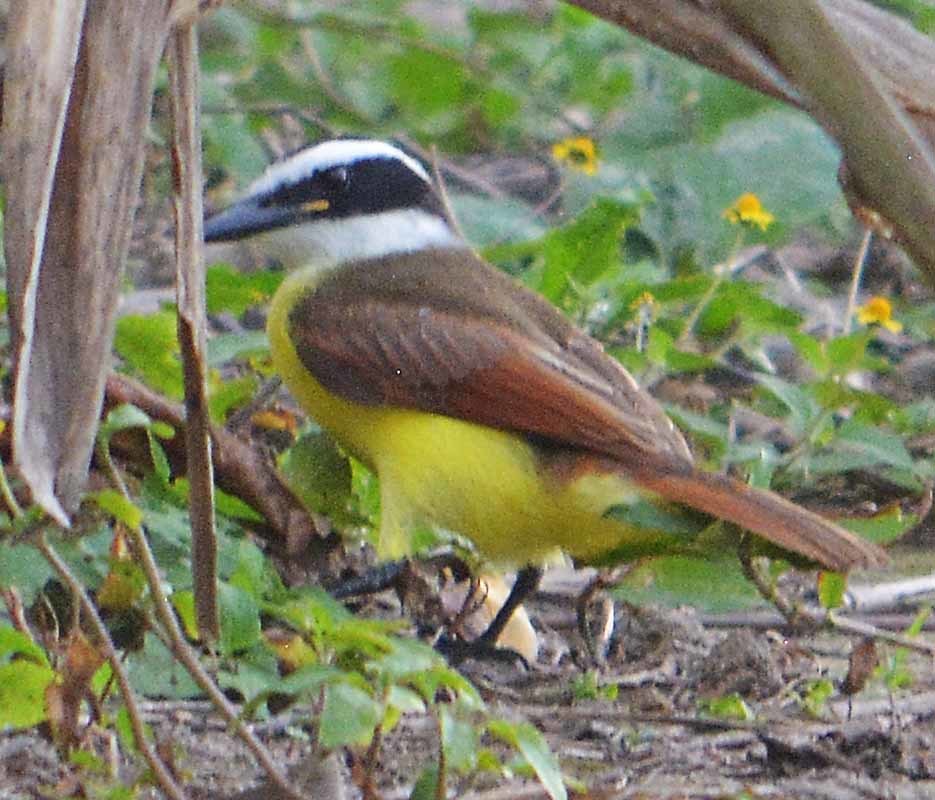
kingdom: Animalia
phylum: Chordata
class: Aves
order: Passeriformes
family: Tyrannidae
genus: Pitangus
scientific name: Pitangus sulphuratus
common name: Great kiskadee
